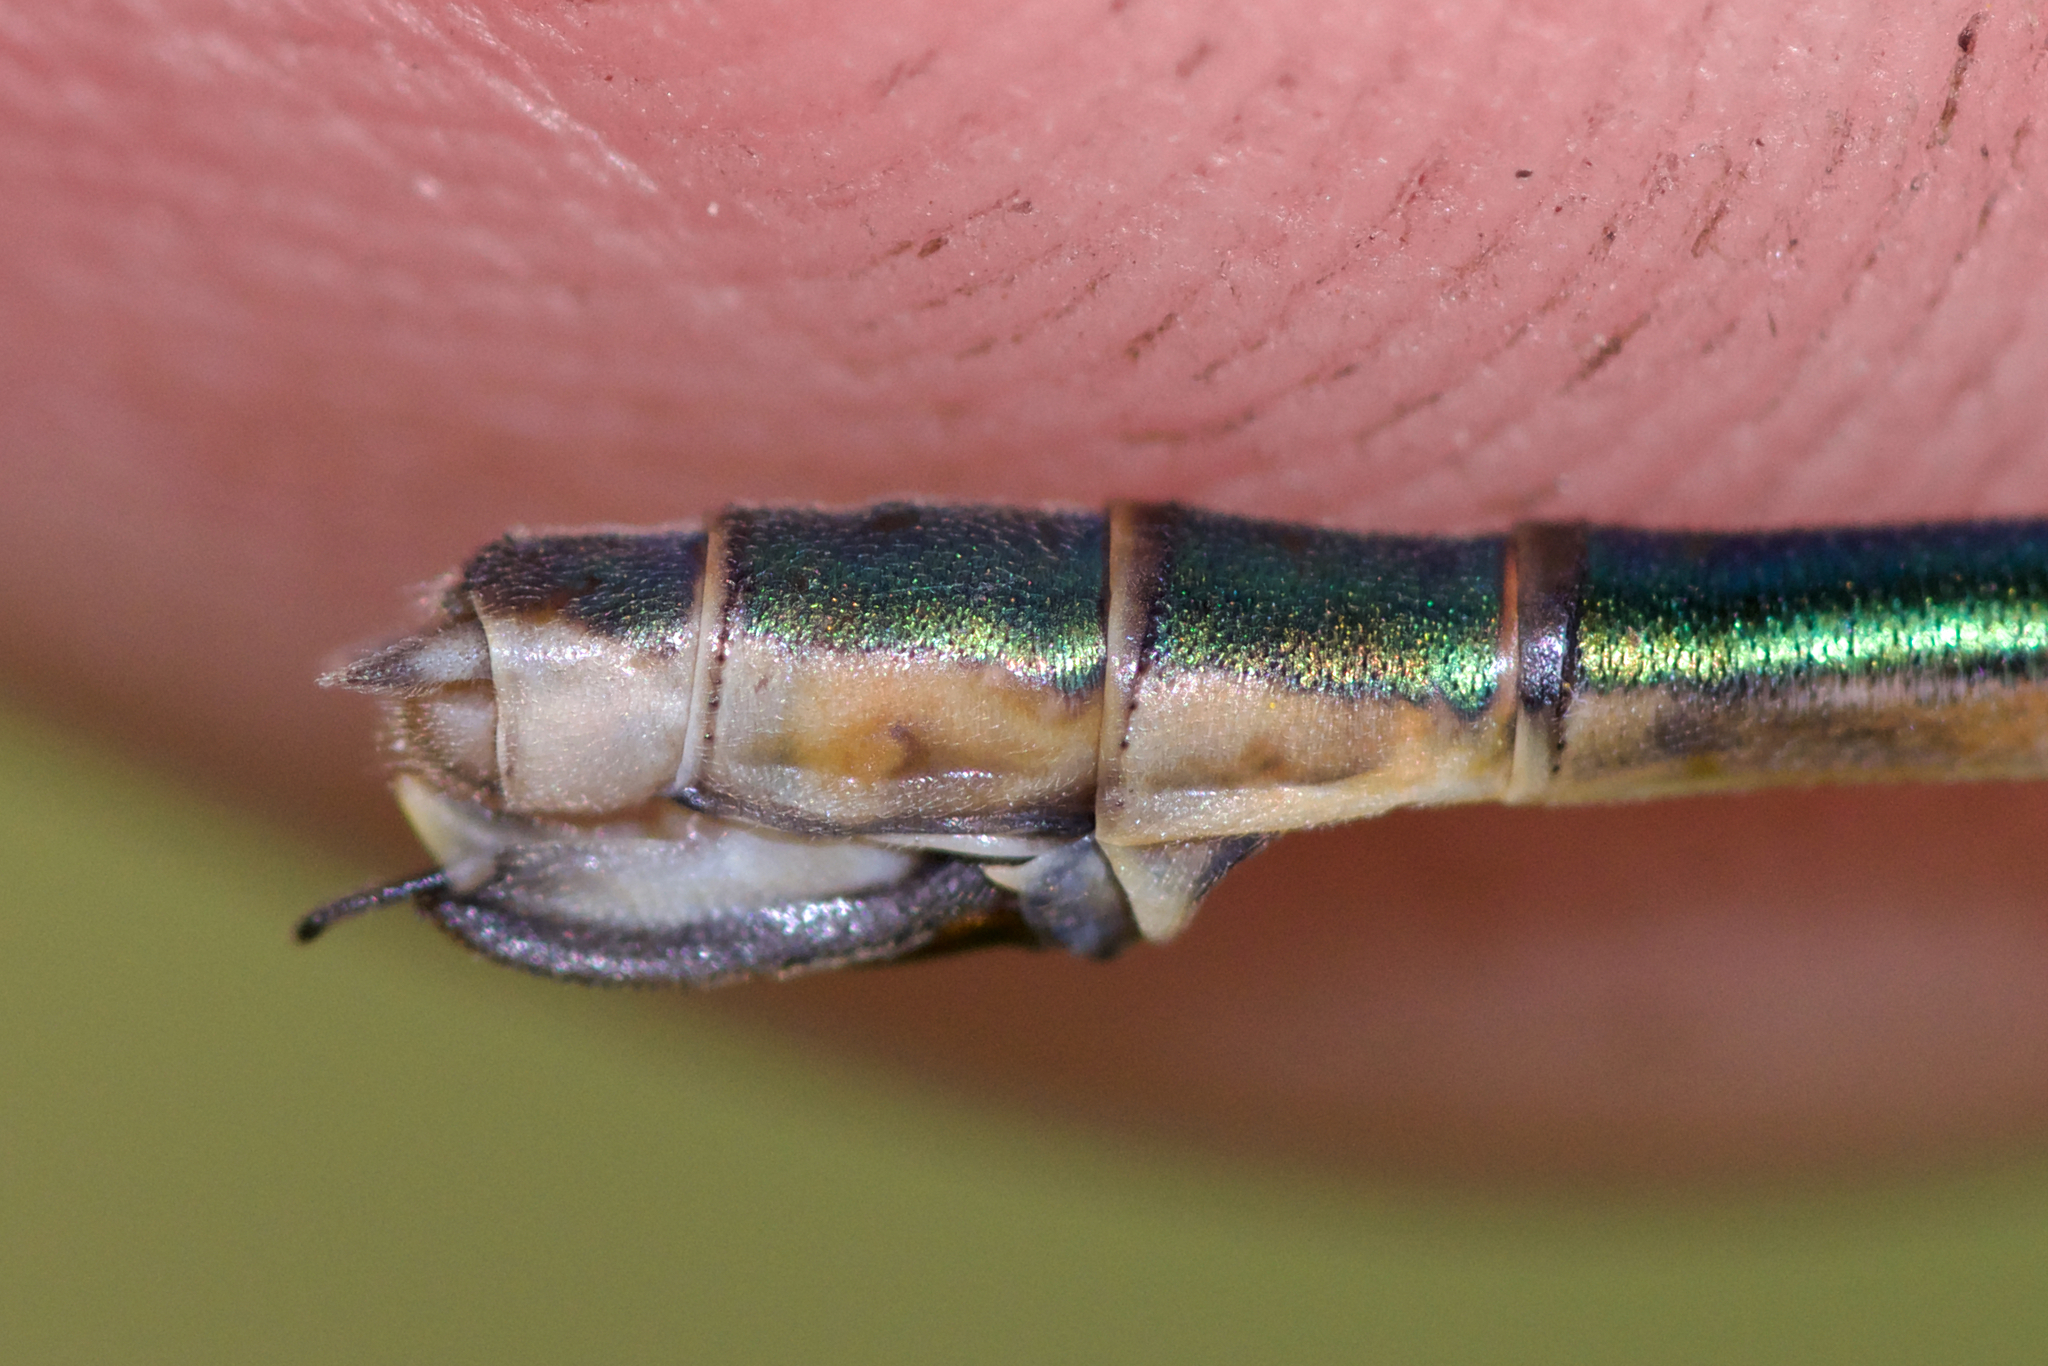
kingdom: Animalia
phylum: Arthropoda
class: Insecta
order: Odonata
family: Lestidae
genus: Lestes
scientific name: Lestes dryas
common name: Scarce emerald damselfly
